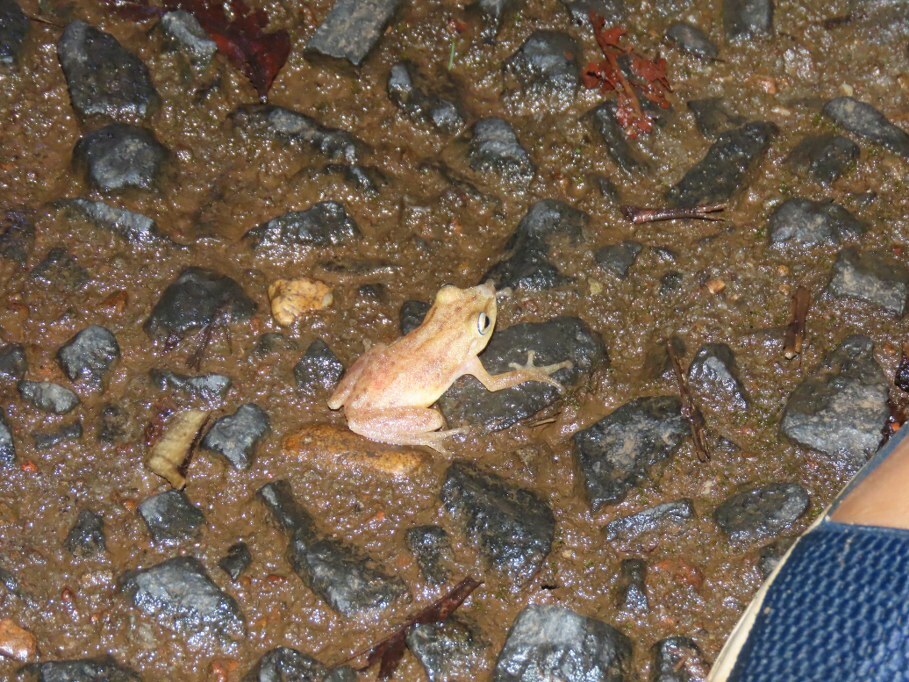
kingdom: Animalia
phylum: Chordata
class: Amphibia
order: Anura
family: Rhacophoridae
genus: Raorchestes
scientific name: Raorchestes luteolus
